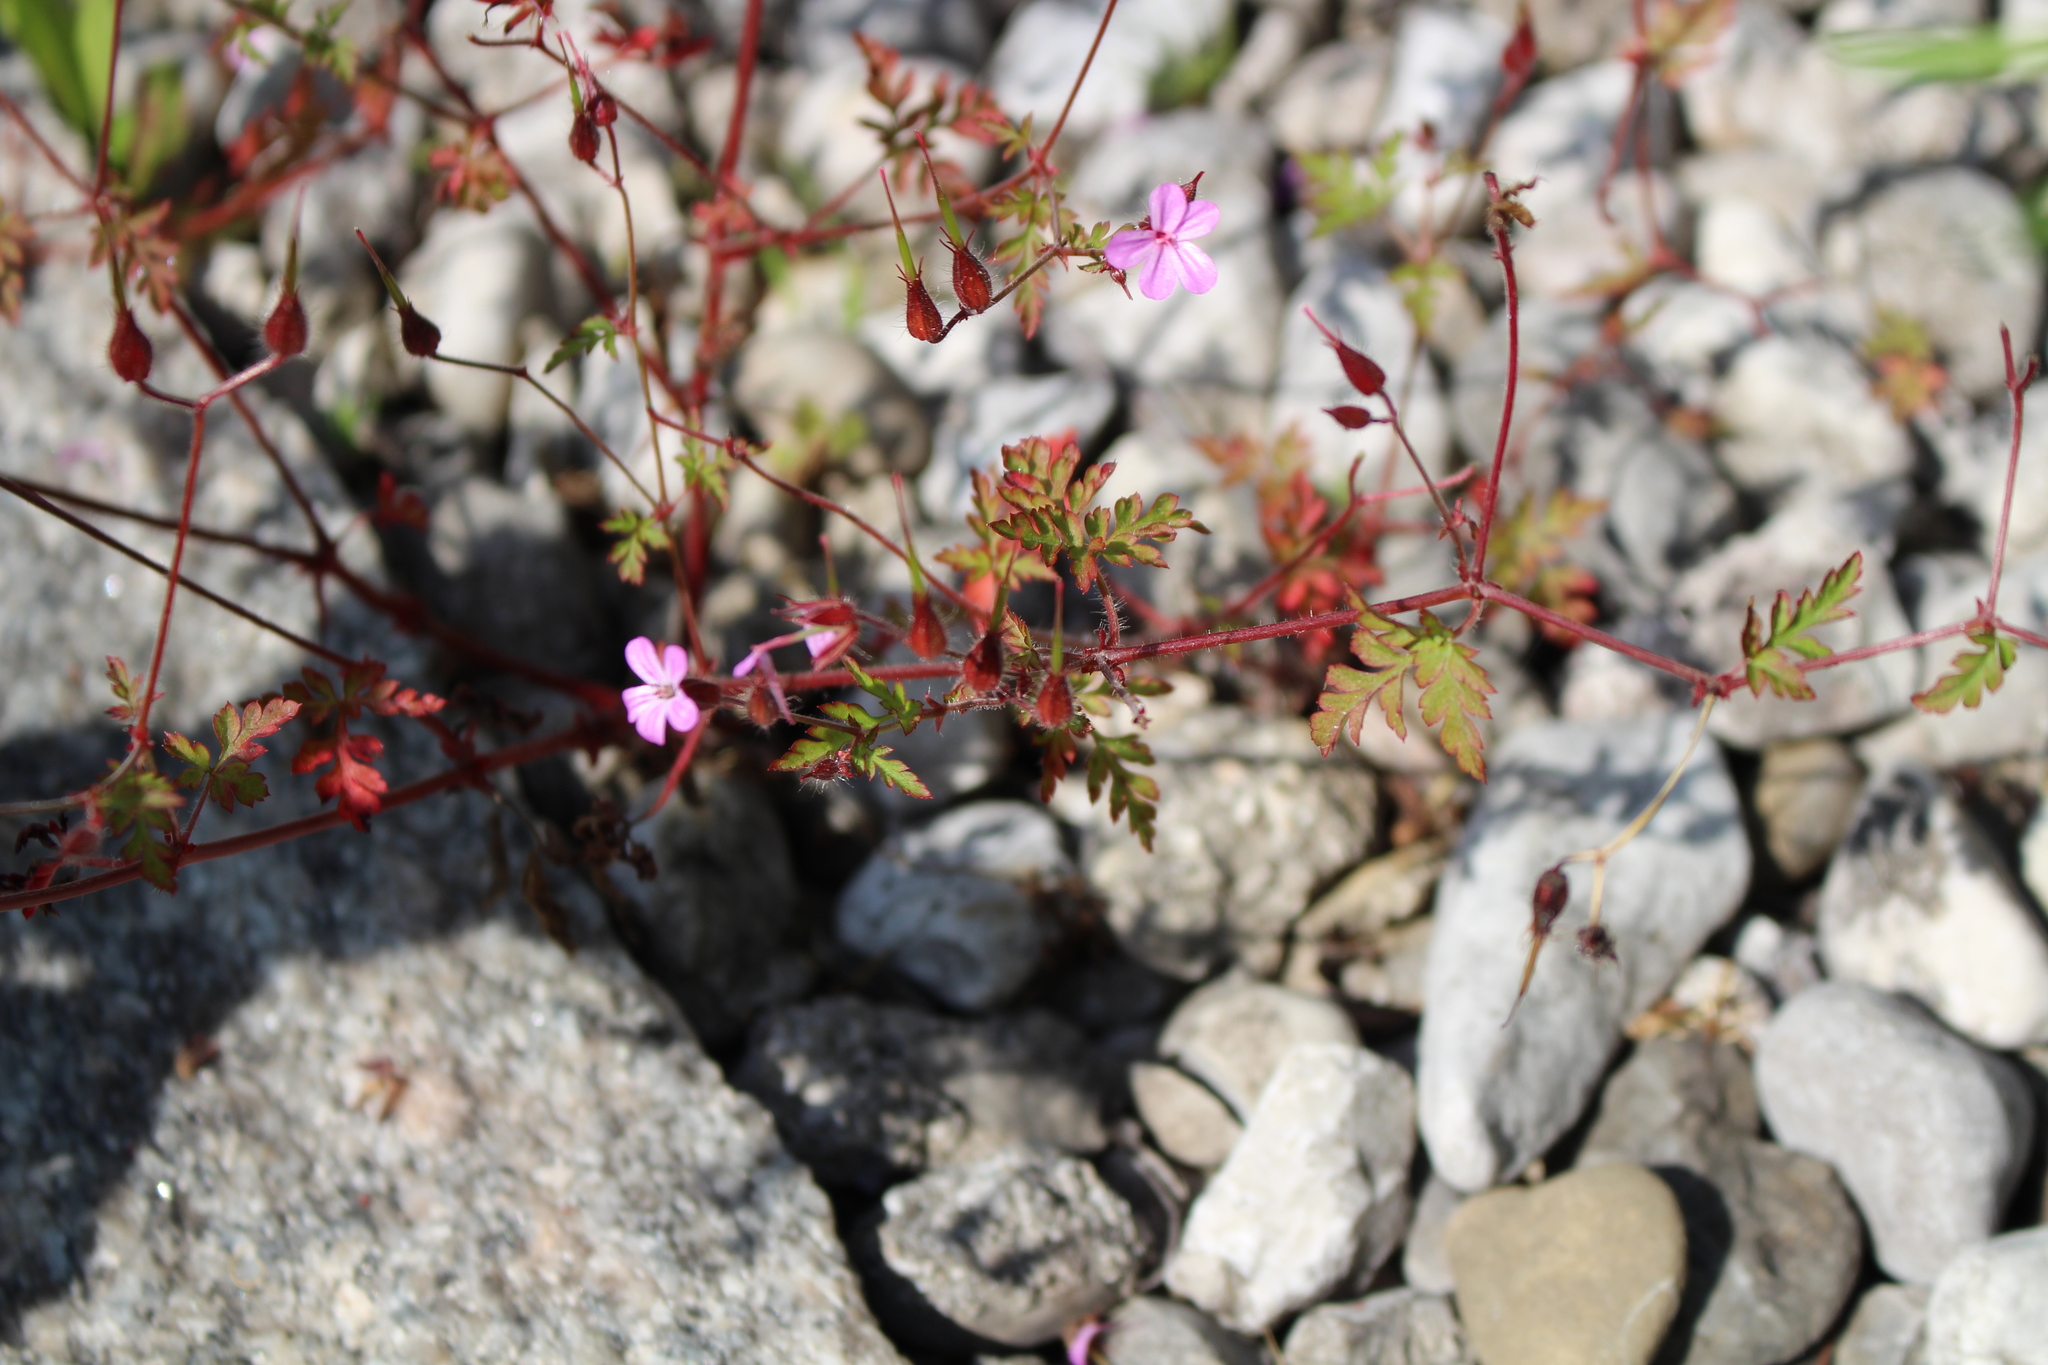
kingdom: Plantae
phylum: Tracheophyta
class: Magnoliopsida
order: Geraniales
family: Geraniaceae
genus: Geranium
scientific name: Geranium robertianum
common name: Herb-robert
